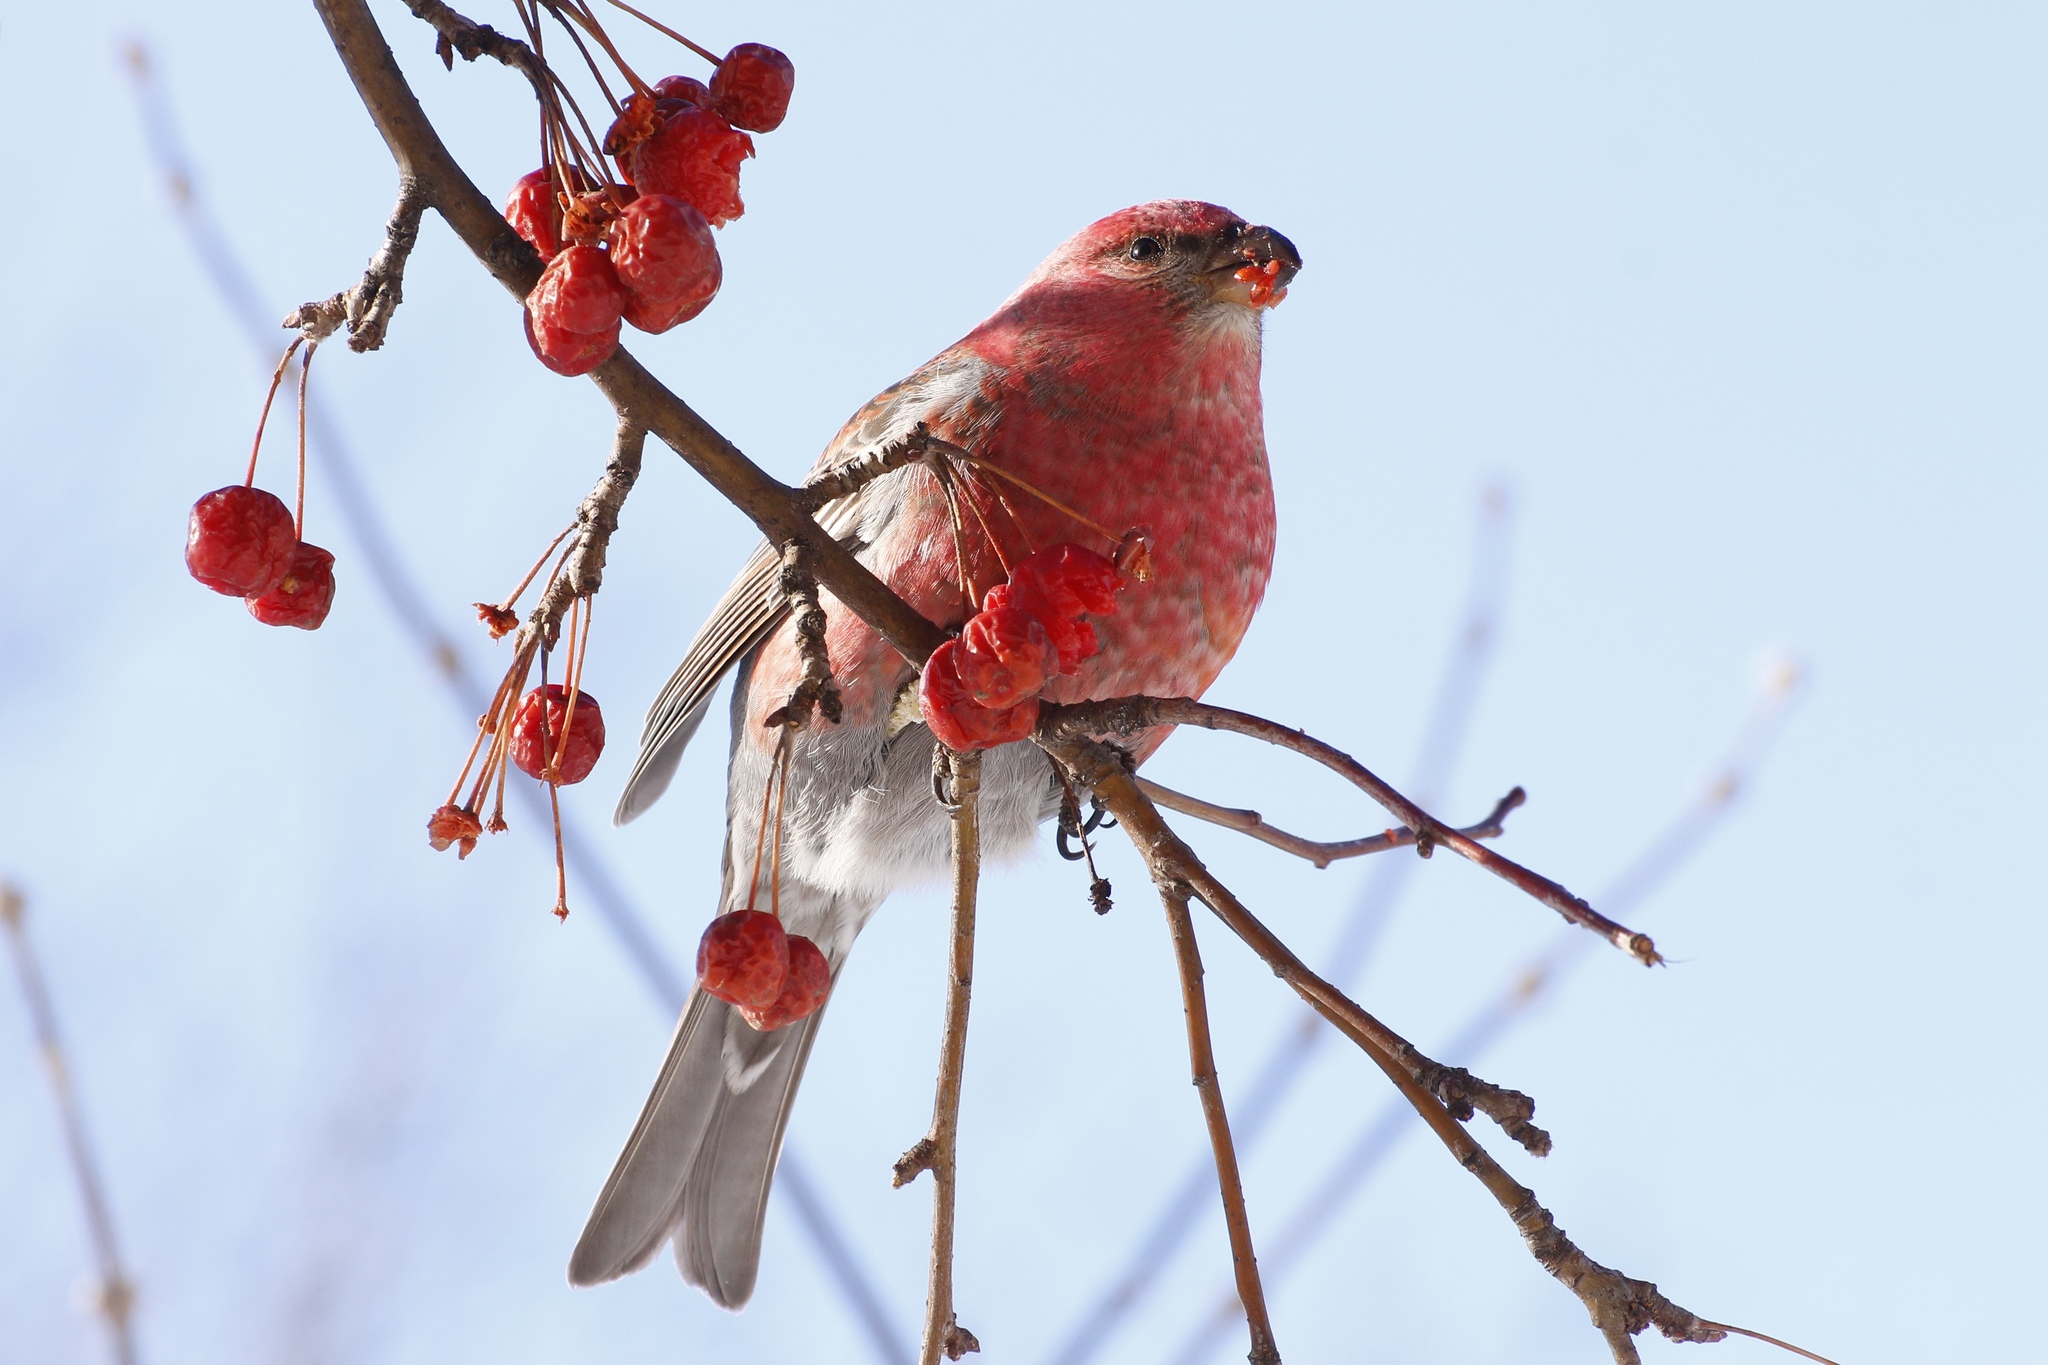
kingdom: Animalia
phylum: Chordata
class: Aves
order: Passeriformes
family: Fringillidae
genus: Pinicola
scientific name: Pinicola enucleator
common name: Pine grosbeak
